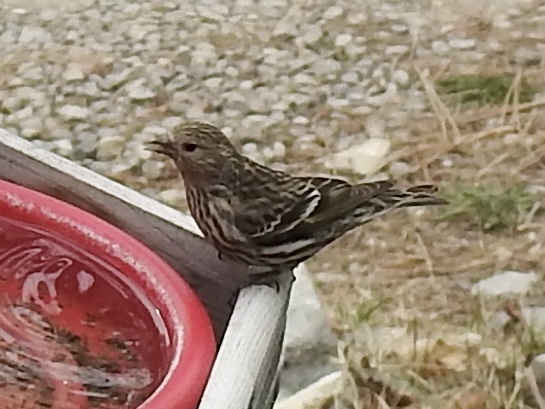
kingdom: Animalia
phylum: Chordata
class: Aves
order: Passeriformes
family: Fringillidae
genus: Spinus
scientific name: Spinus pinus
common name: Pine siskin
